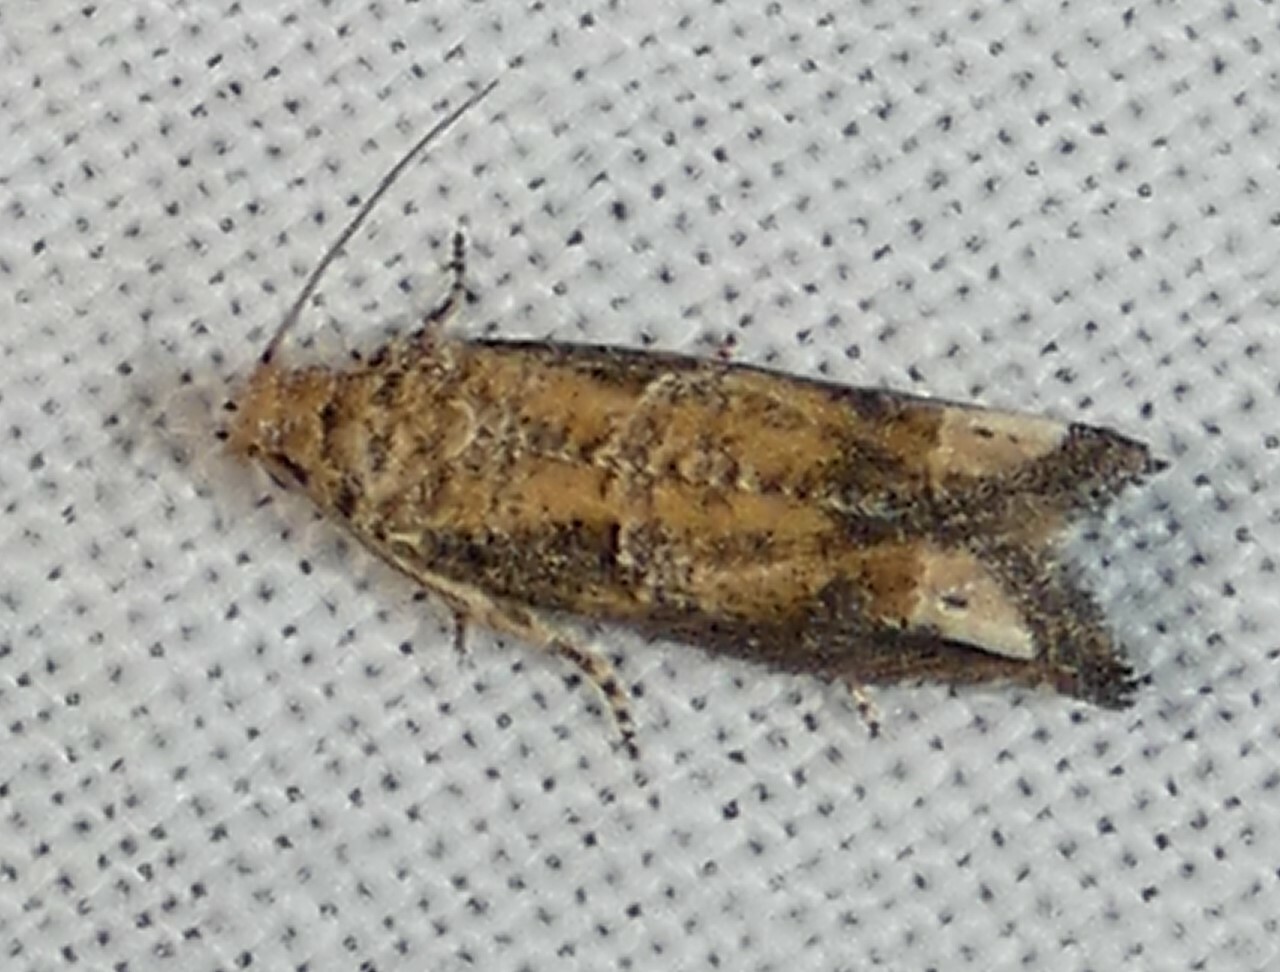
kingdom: Animalia
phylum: Arthropoda
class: Insecta
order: Lepidoptera
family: Tortricidae
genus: Epiblema
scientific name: Epiblema abruptana
